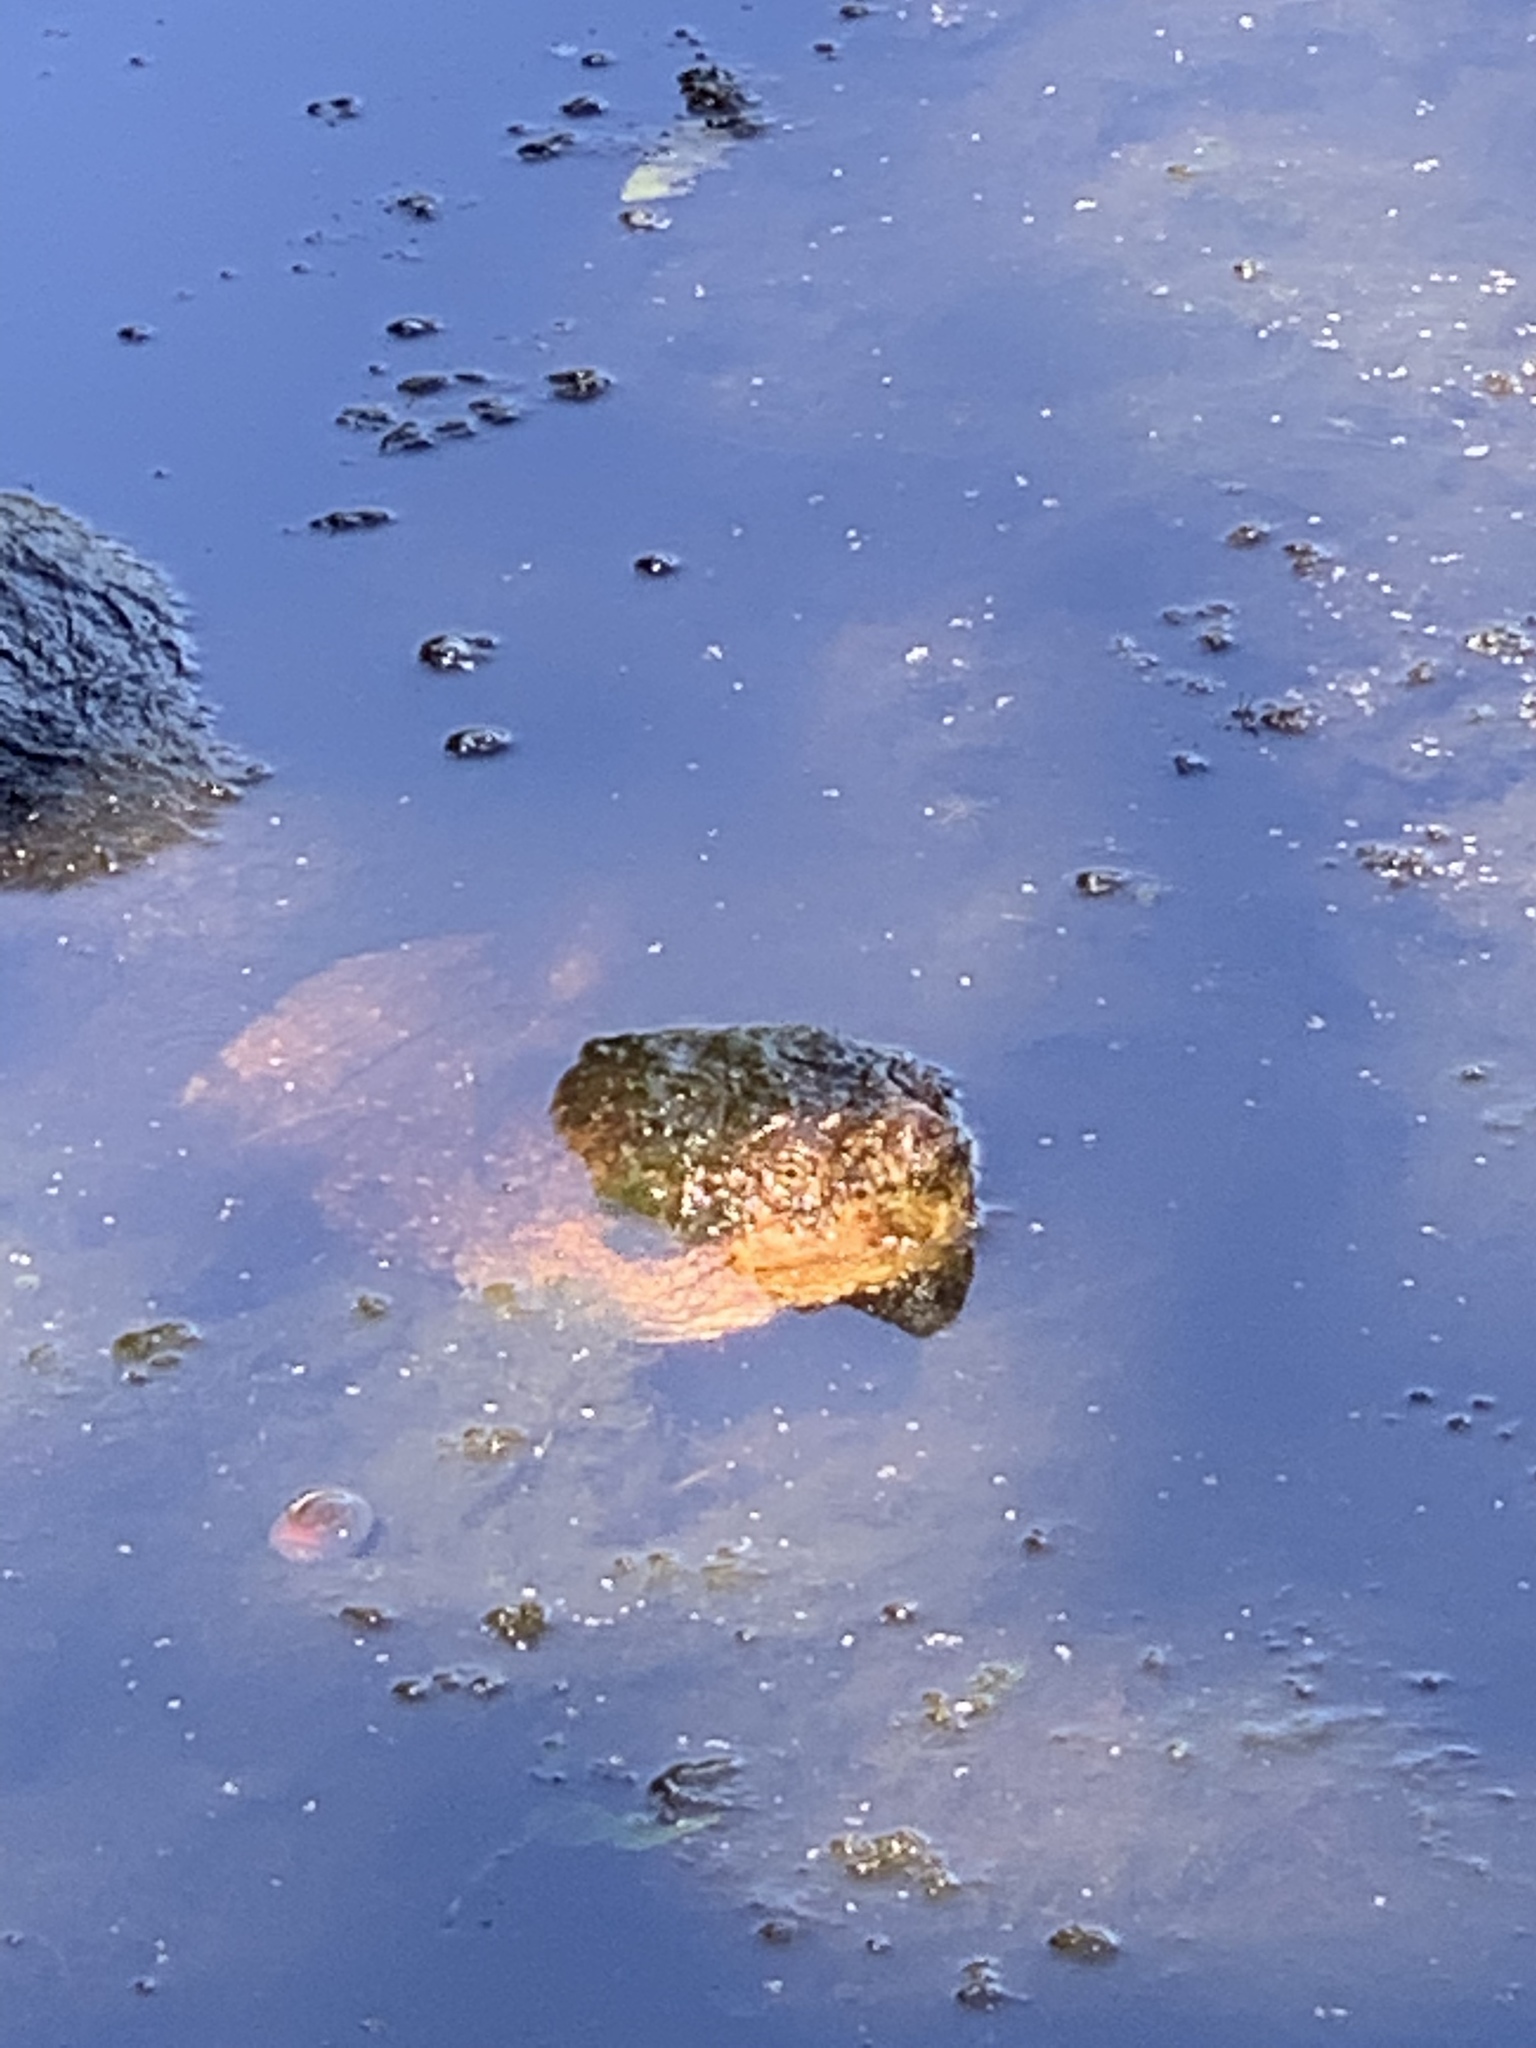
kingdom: Animalia
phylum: Chordata
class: Testudines
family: Chelydridae
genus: Chelydra
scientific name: Chelydra serpentina
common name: Common snapping turtle
